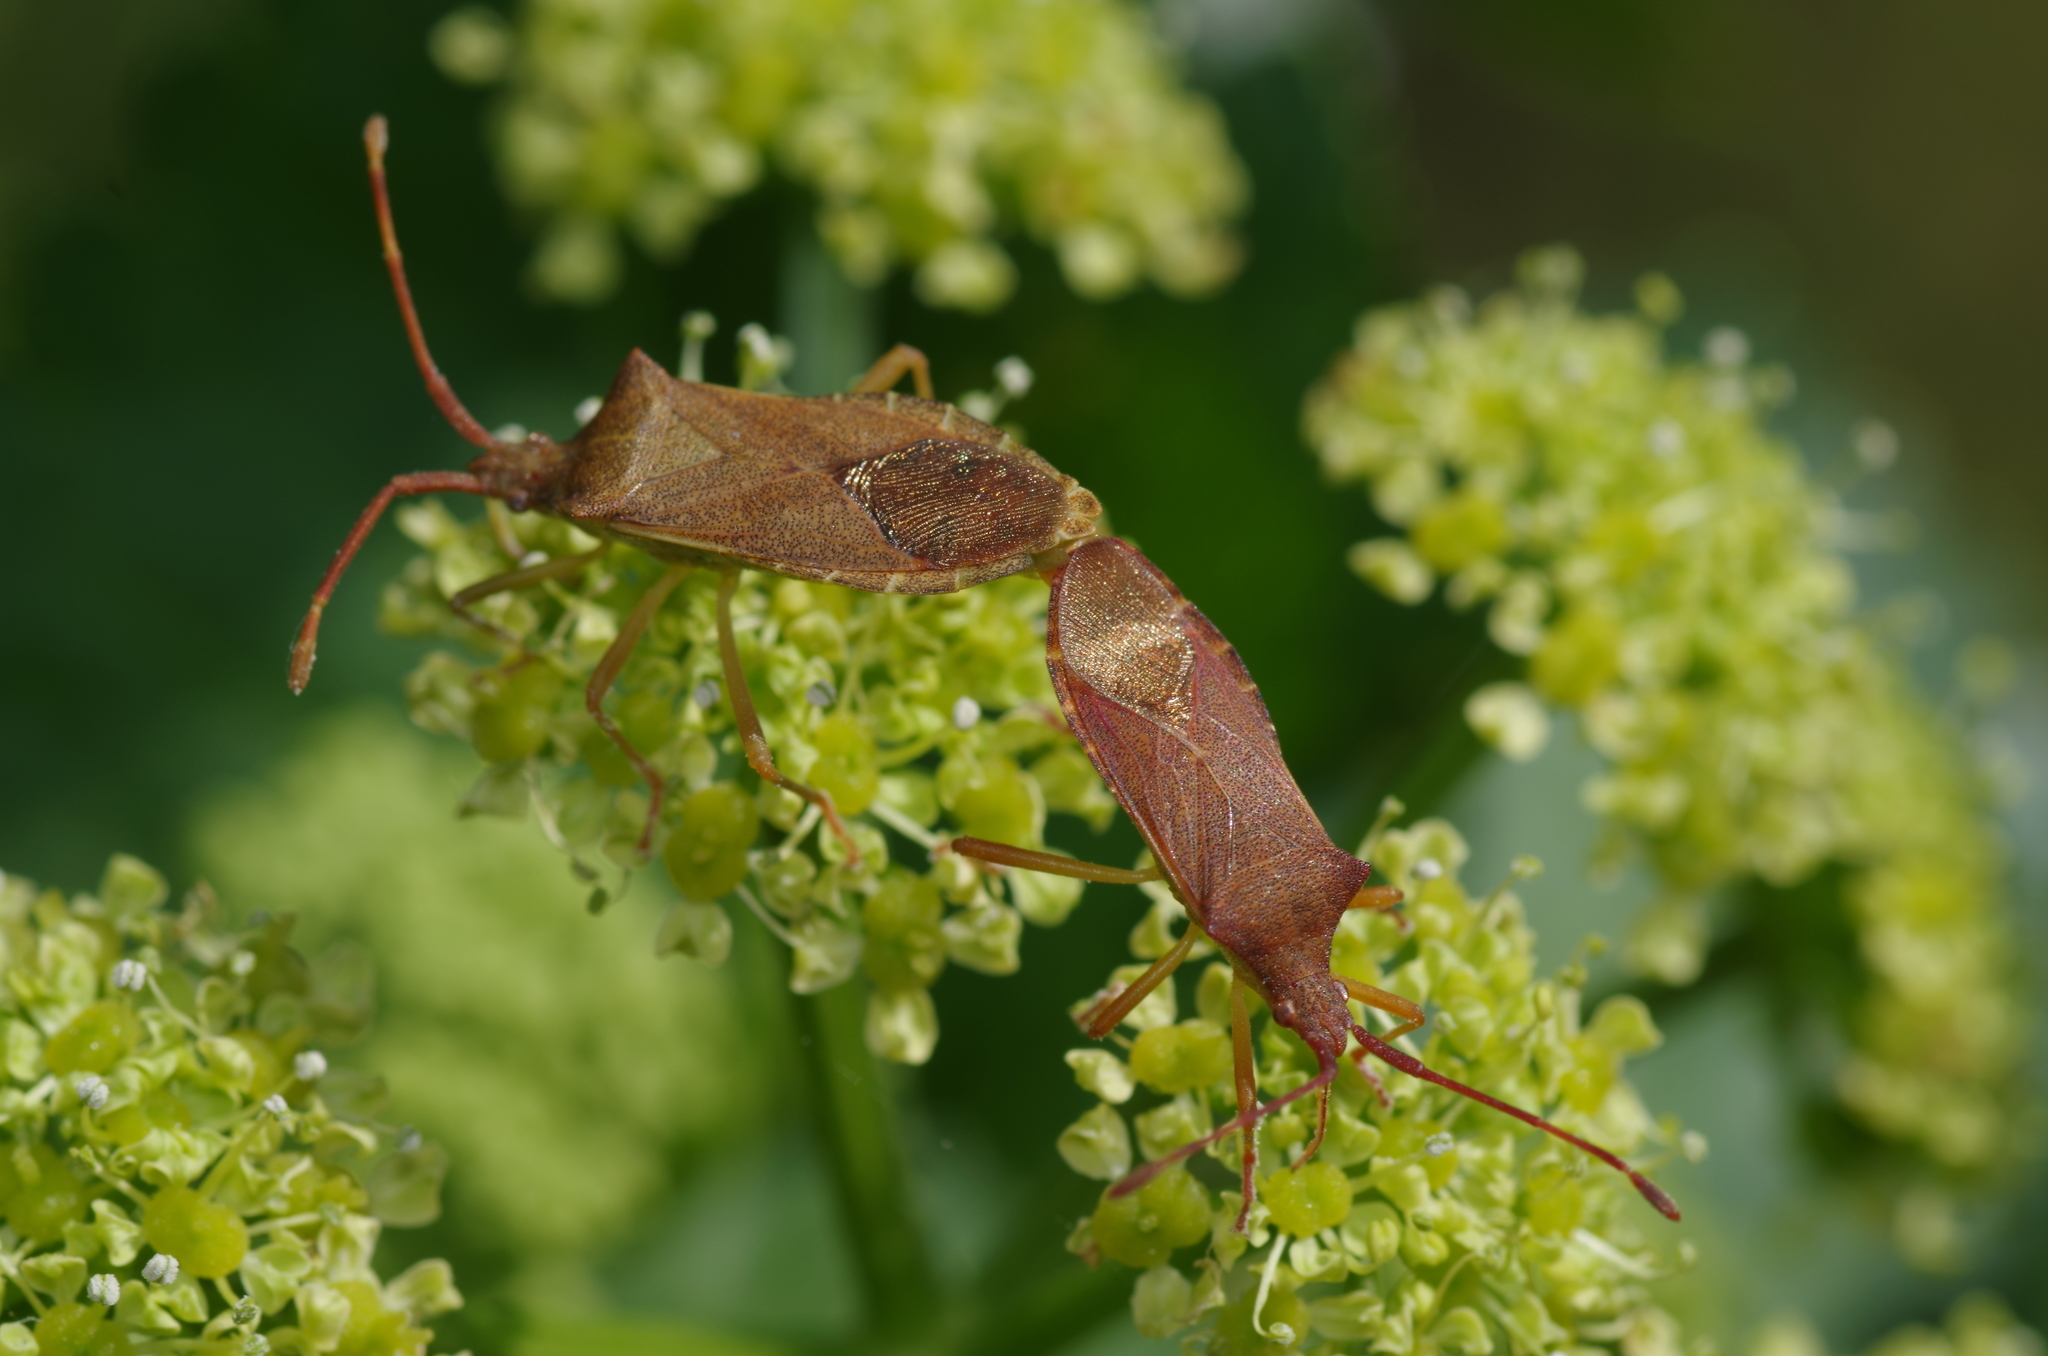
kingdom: Animalia
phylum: Arthropoda
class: Insecta
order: Hemiptera
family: Coreidae
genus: Gonocerus
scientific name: Gonocerus acuteangulatus
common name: Box bug
